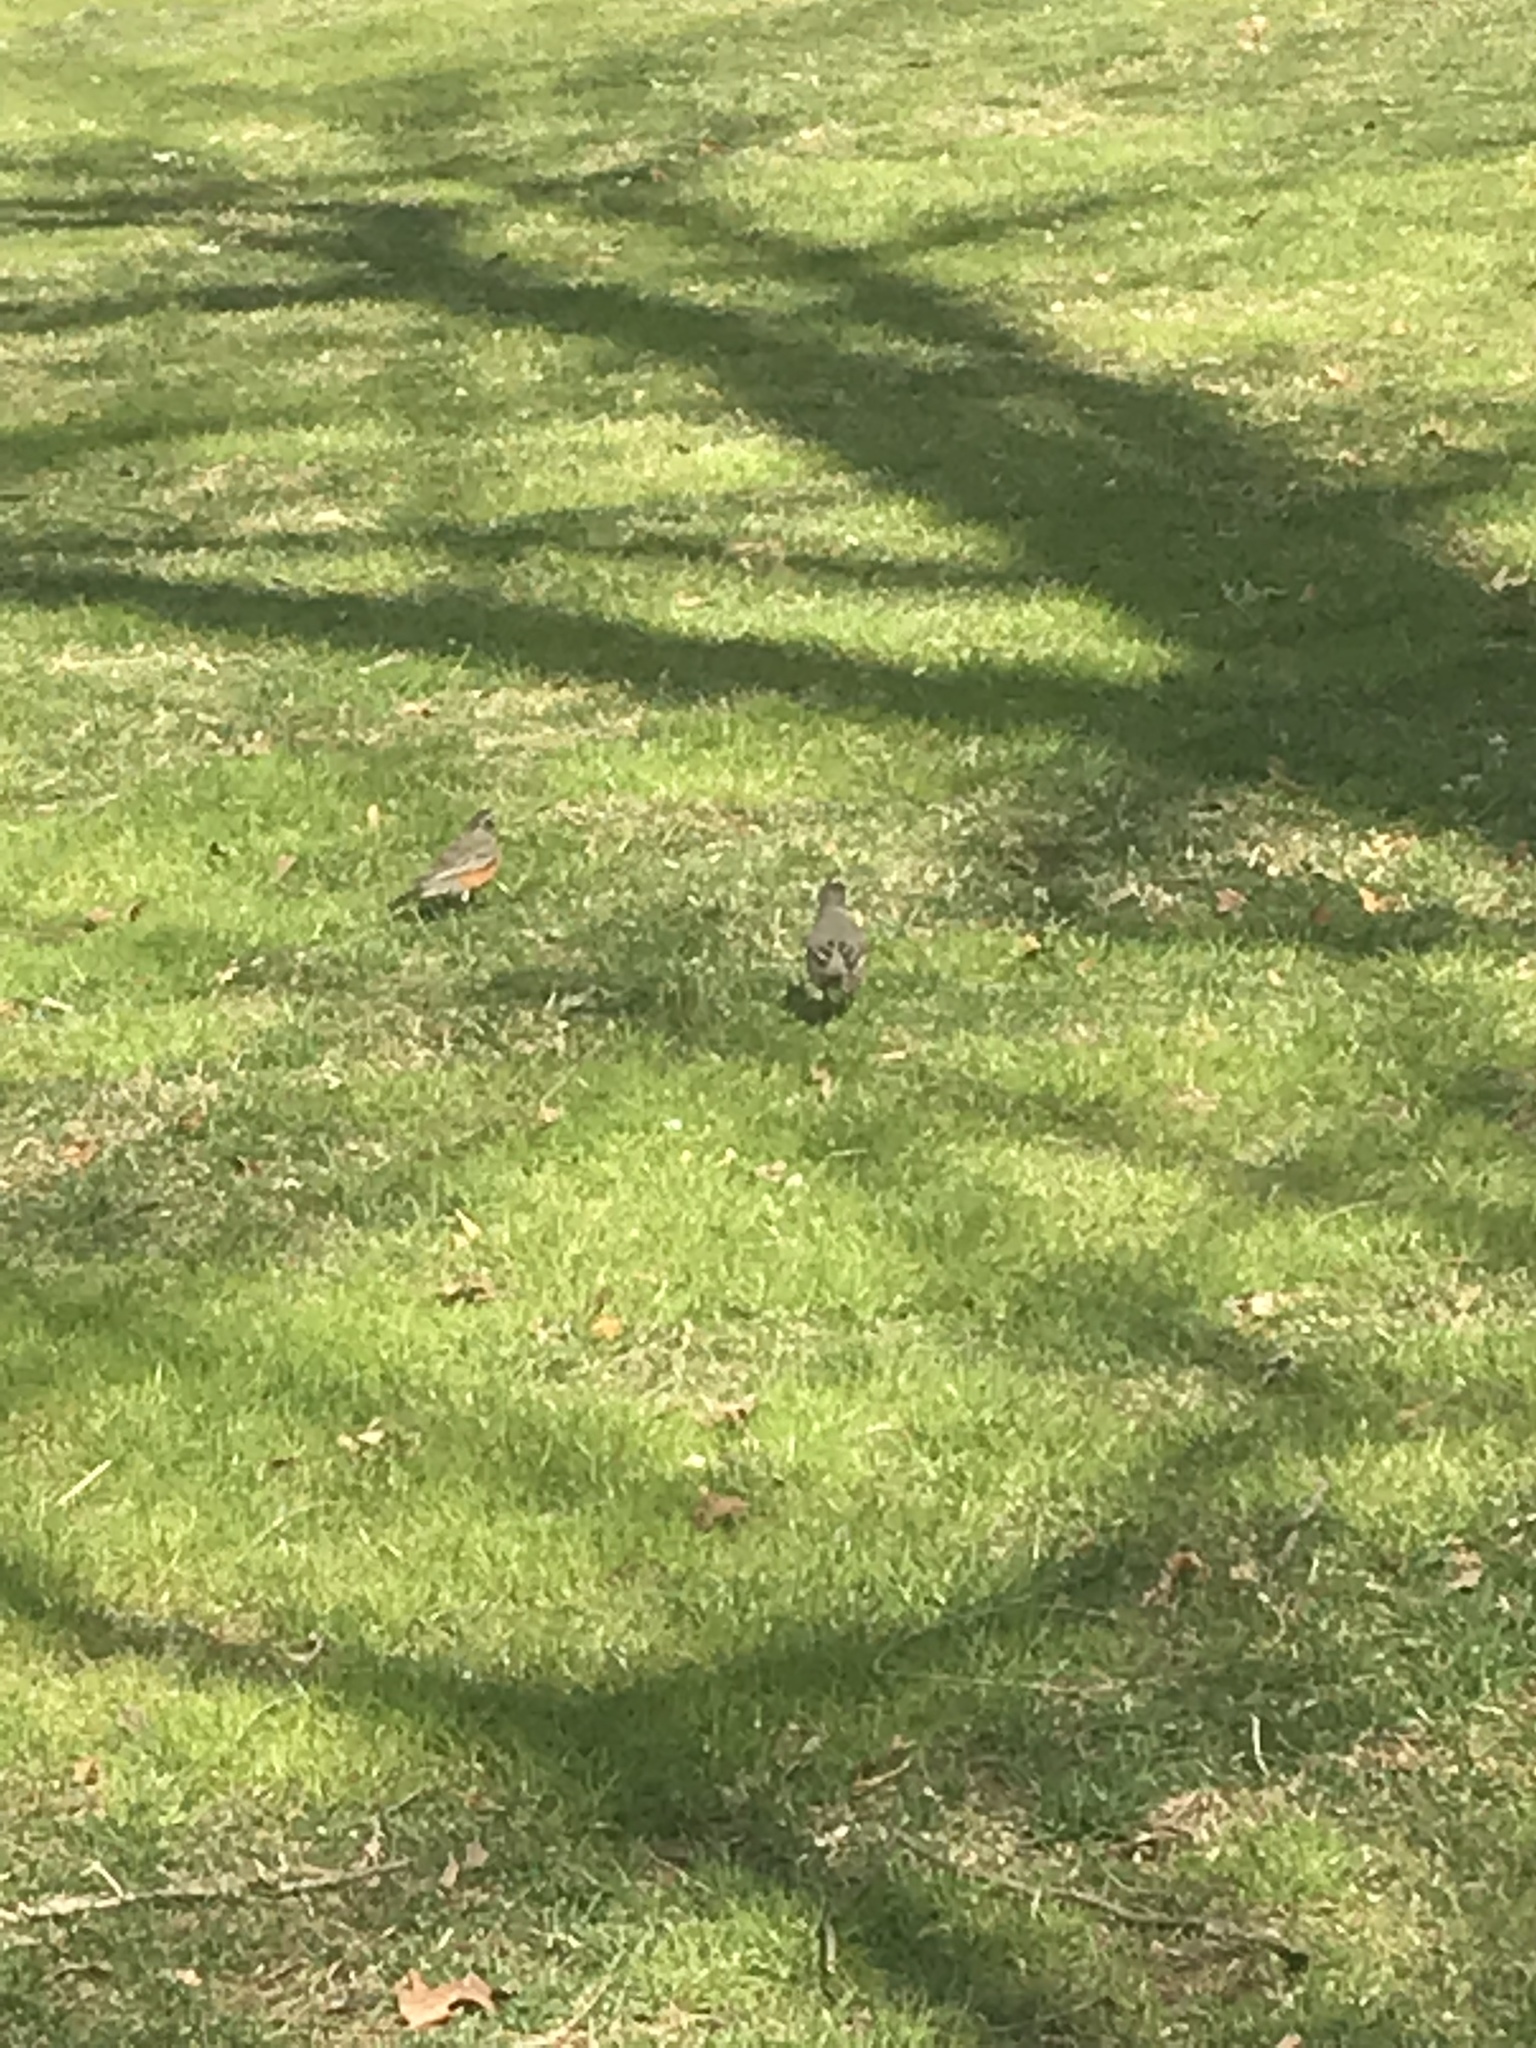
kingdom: Animalia
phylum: Chordata
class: Aves
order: Passeriformes
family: Turdidae
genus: Turdus
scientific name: Turdus migratorius
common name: American robin
